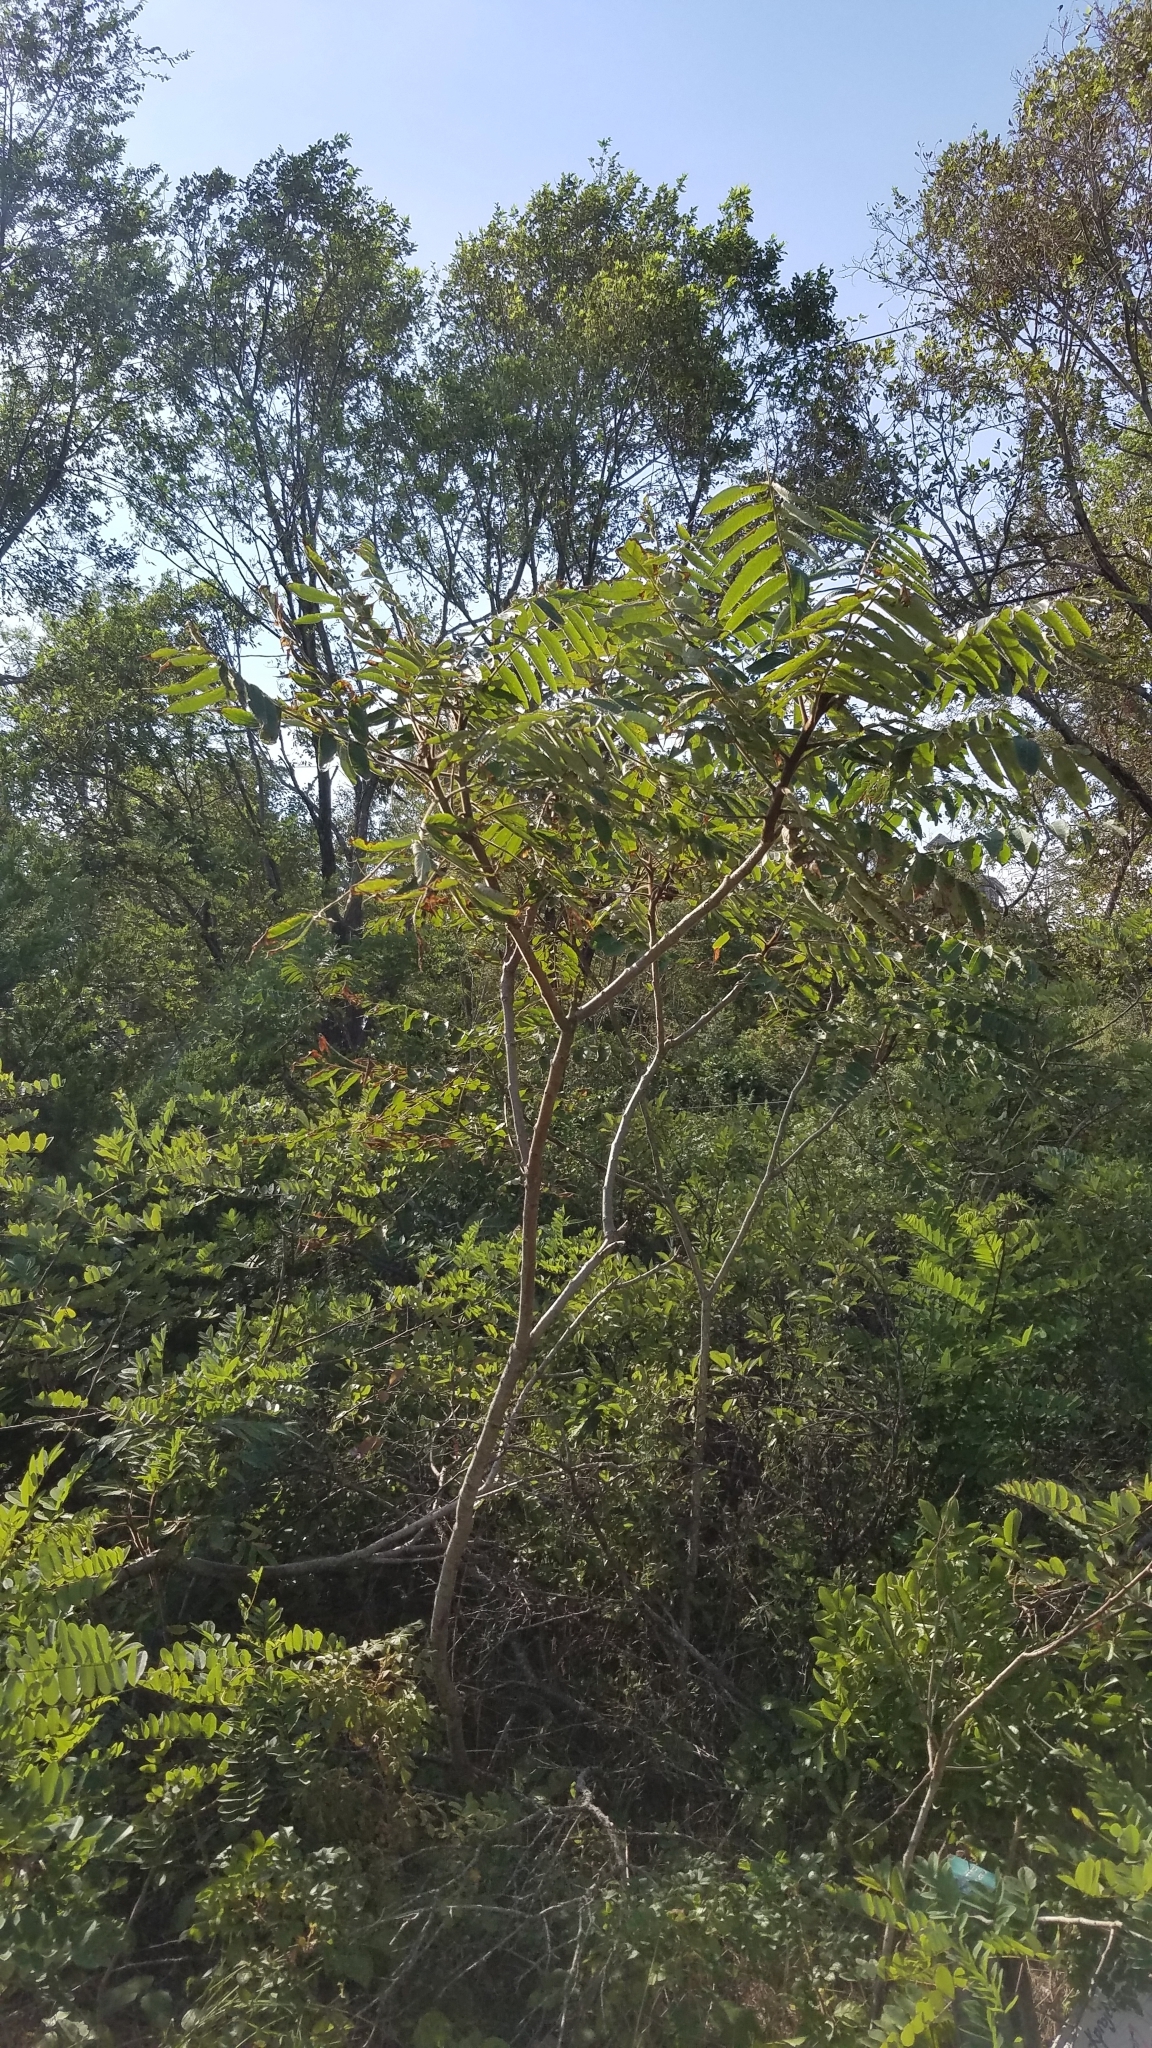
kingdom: Plantae
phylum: Tracheophyta
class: Magnoliopsida
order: Sapindales
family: Anacardiaceae
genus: Rhus
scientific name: Rhus typhina
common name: Staghorn sumac
